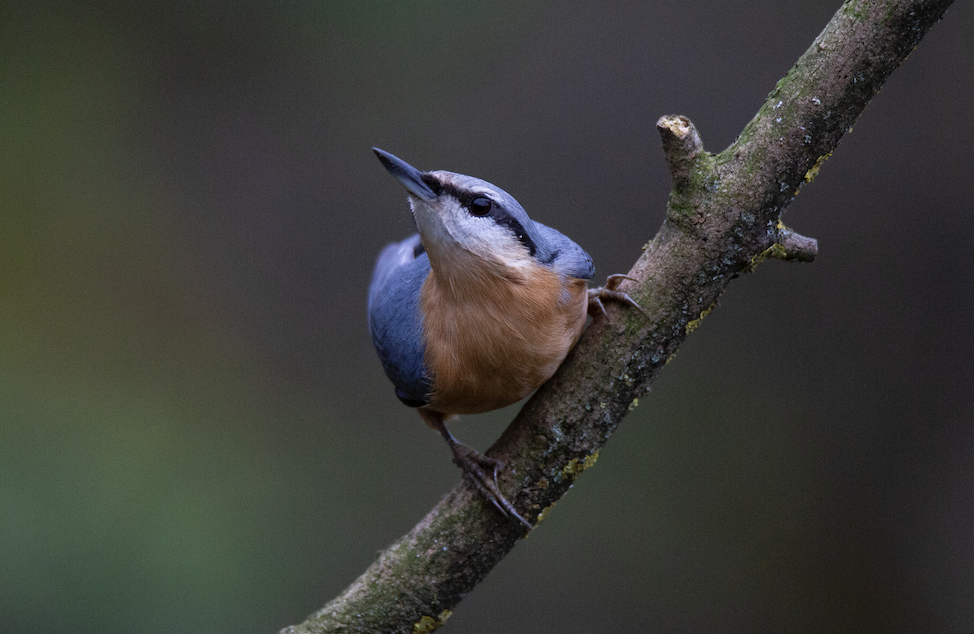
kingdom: Animalia
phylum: Chordata
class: Aves
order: Passeriformes
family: Sittidae
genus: Sitta
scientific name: Sitta europaea
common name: Eurasian nuthatch
